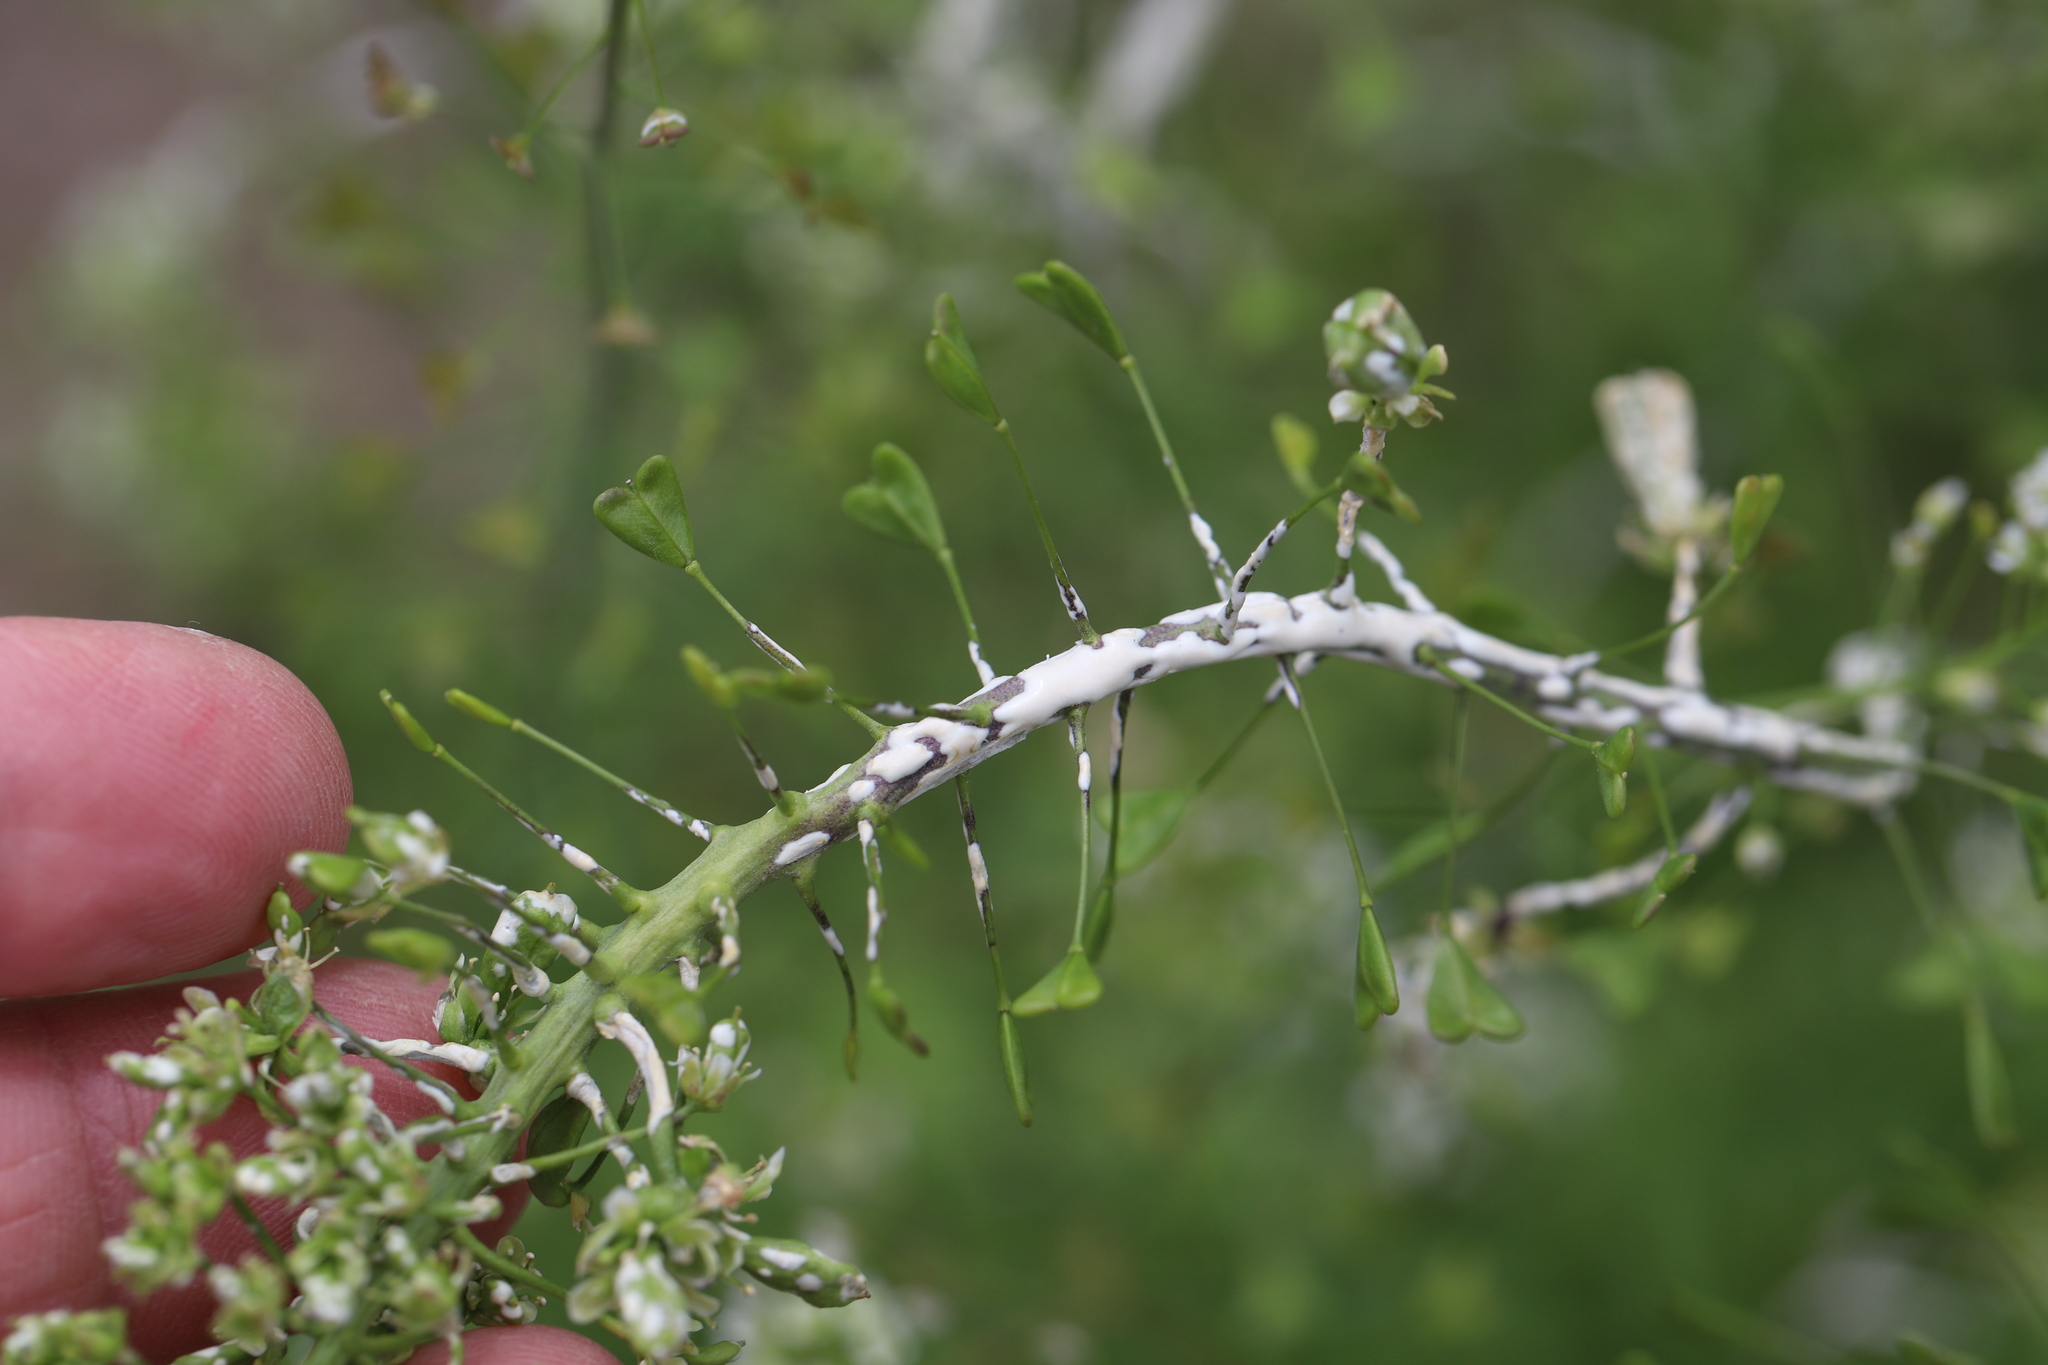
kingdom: Chromista
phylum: Oomycota
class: Peronosporea
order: Albuginales
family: Albuginaceae
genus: Albugo
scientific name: Albugo candida
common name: Crucifer white blister
